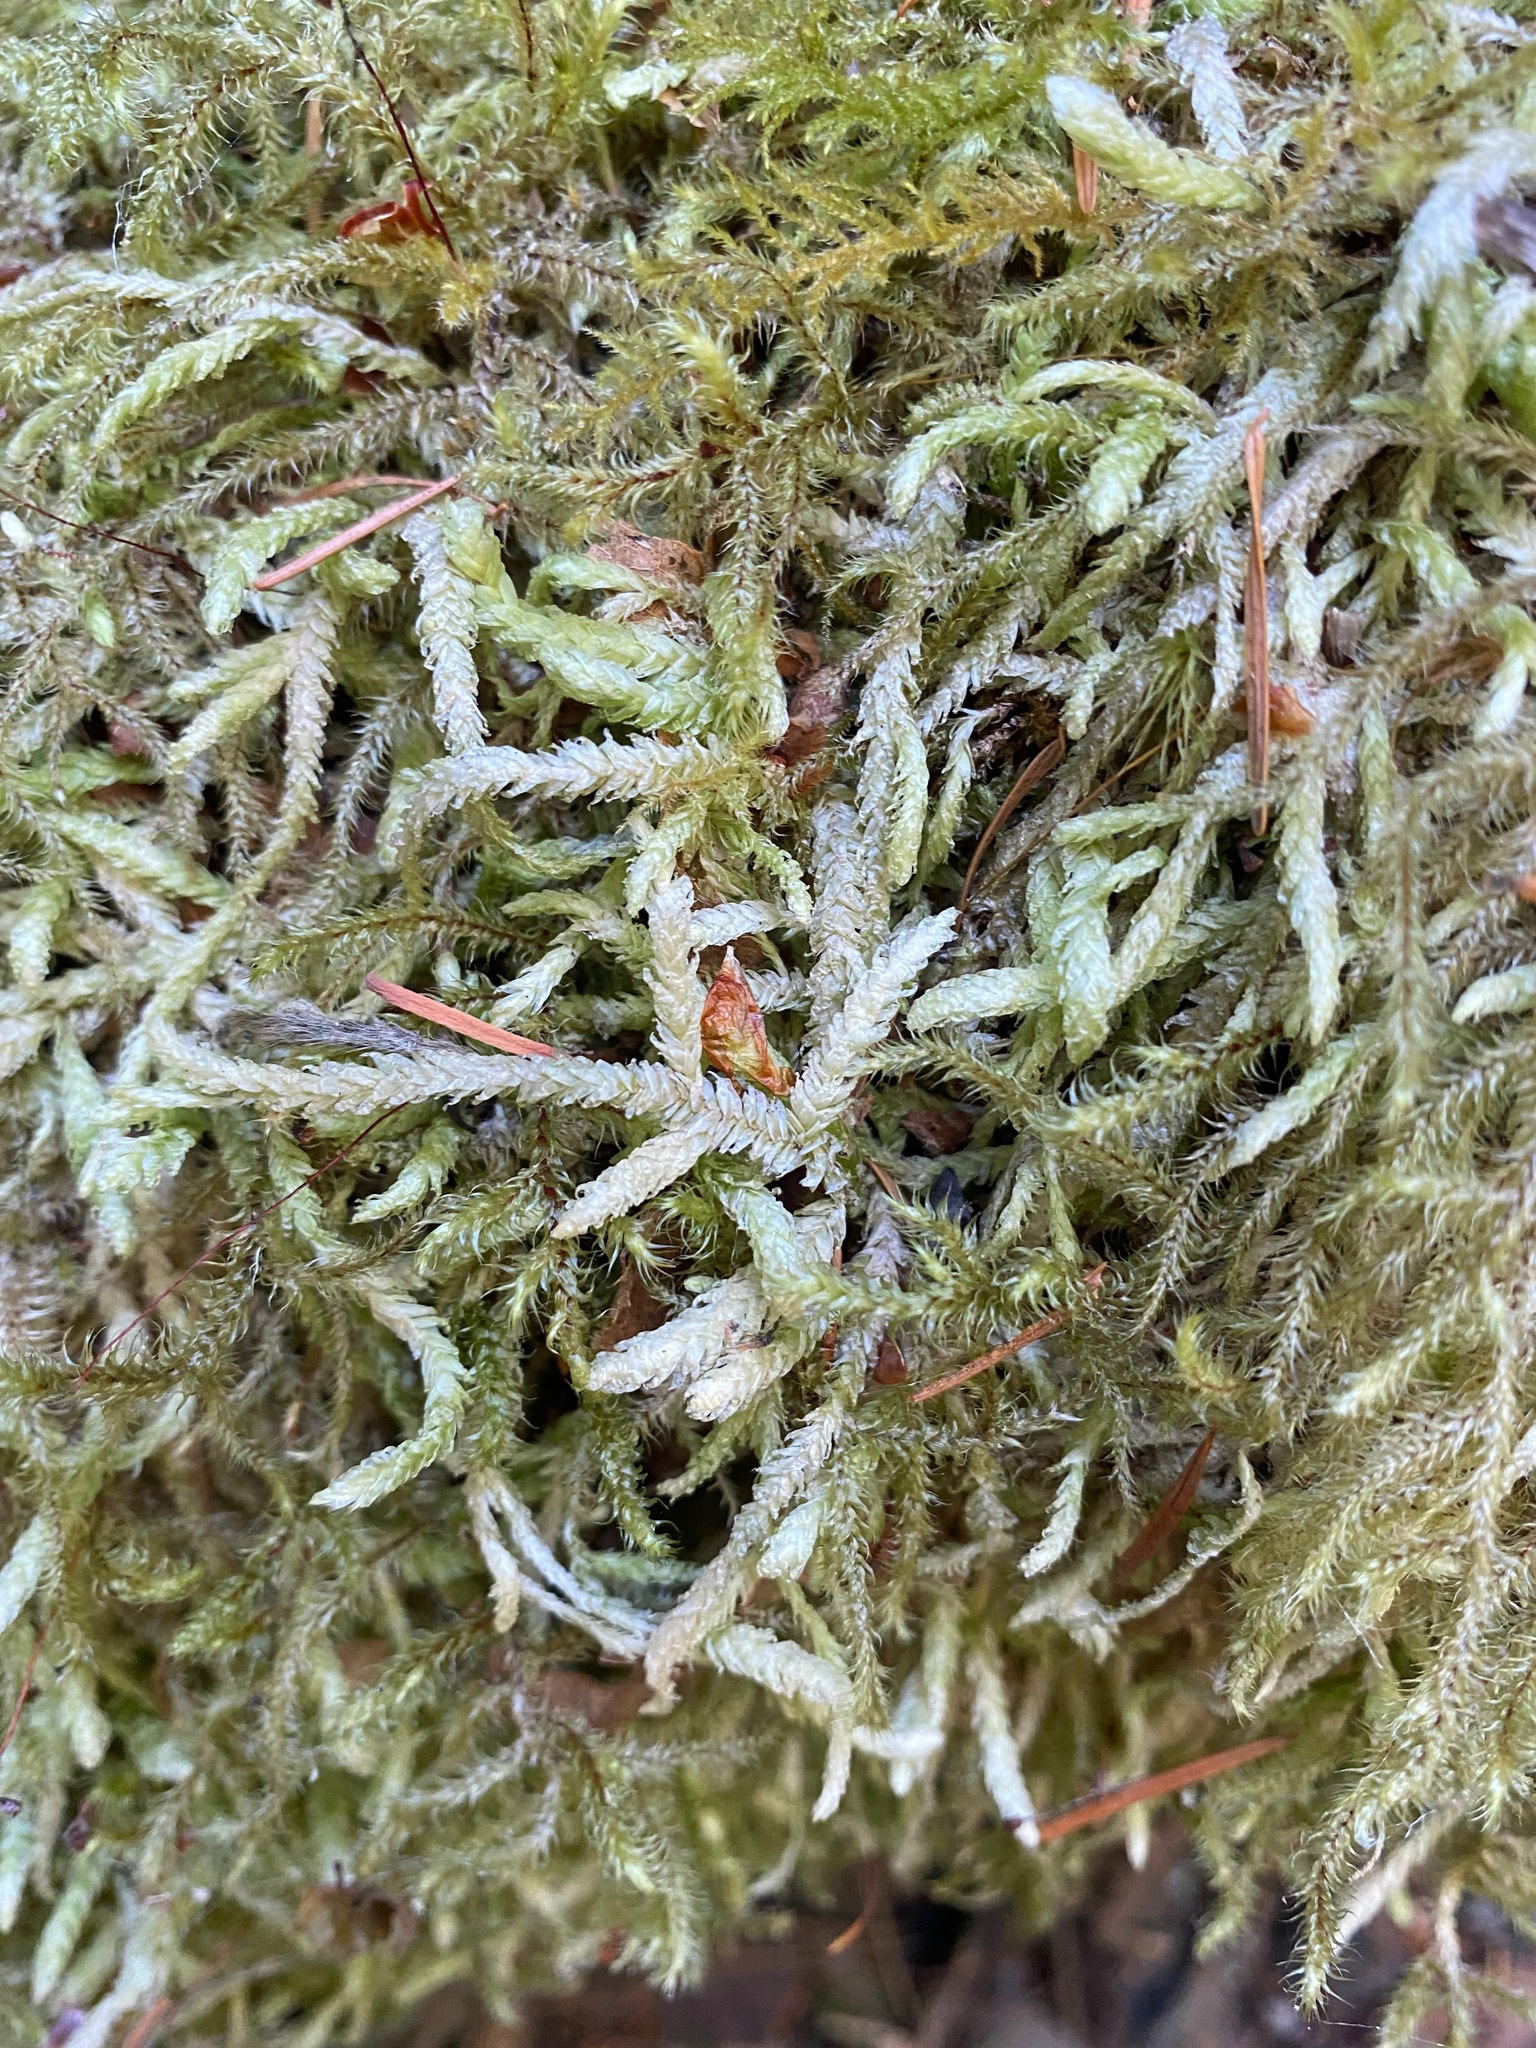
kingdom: Plantae
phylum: Bryophyta
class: Bryopsida
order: Hypnales
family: Plagiotheciaceae
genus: Plagiothecium
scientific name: Plagiothecium undulatum
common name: Waved silk-moss
